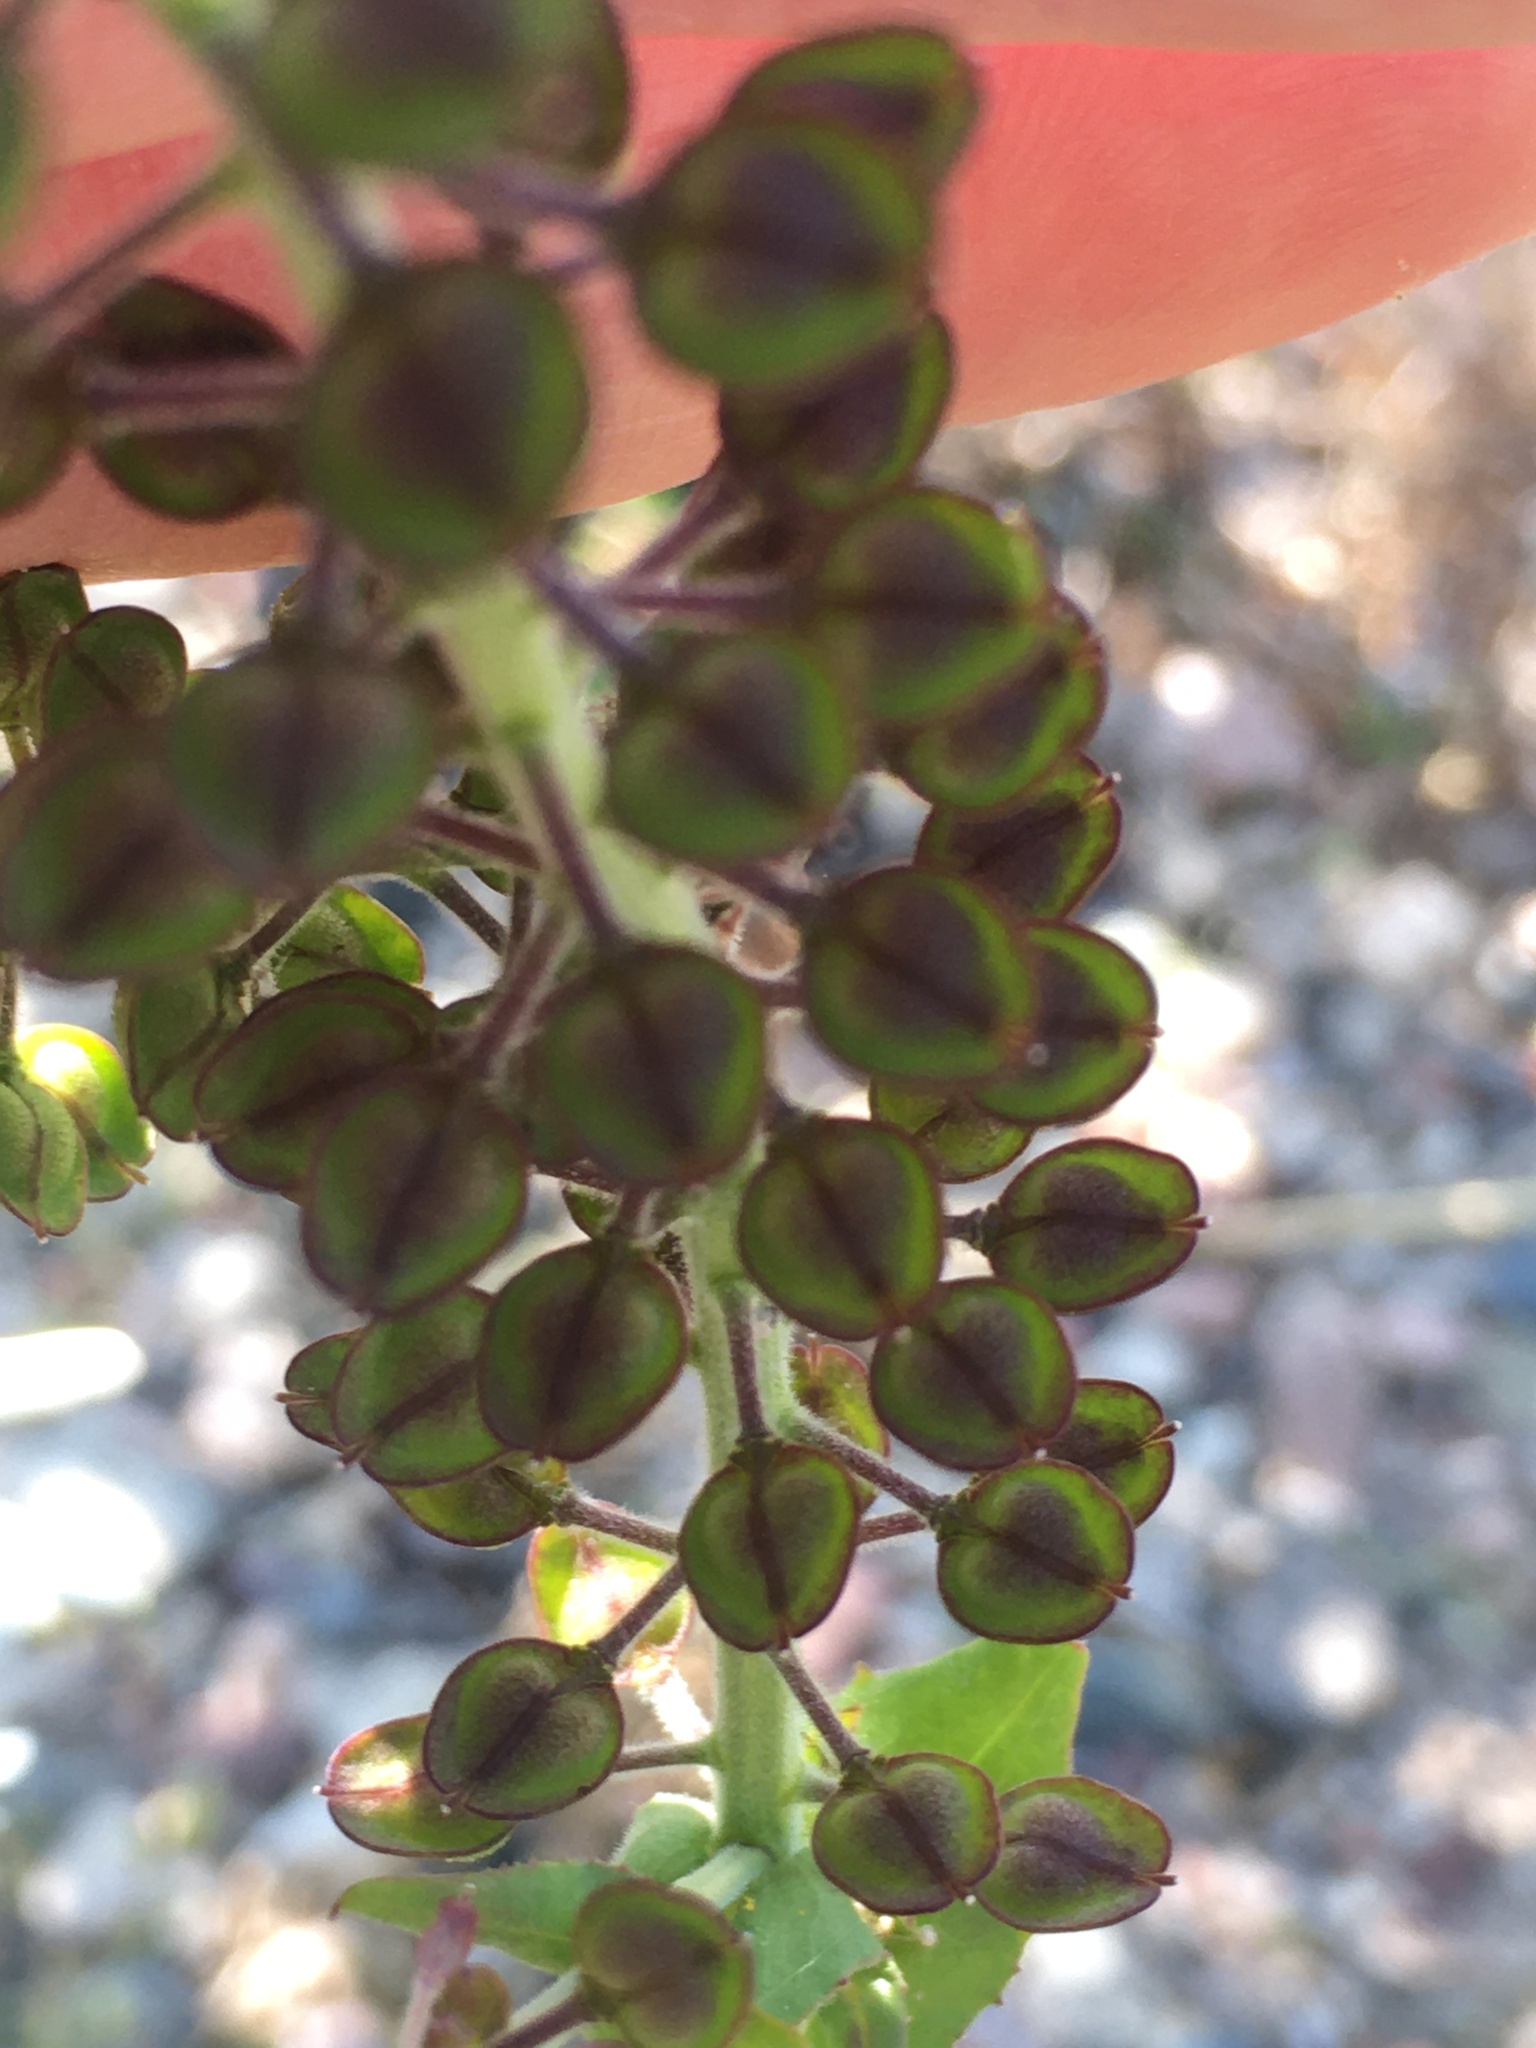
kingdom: Plantae
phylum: Tracheophyta
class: Magnoliopsida
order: Brassicales
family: Brassicaceae
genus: Lepidium
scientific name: Lepidium campestre
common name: Field pepperwort
